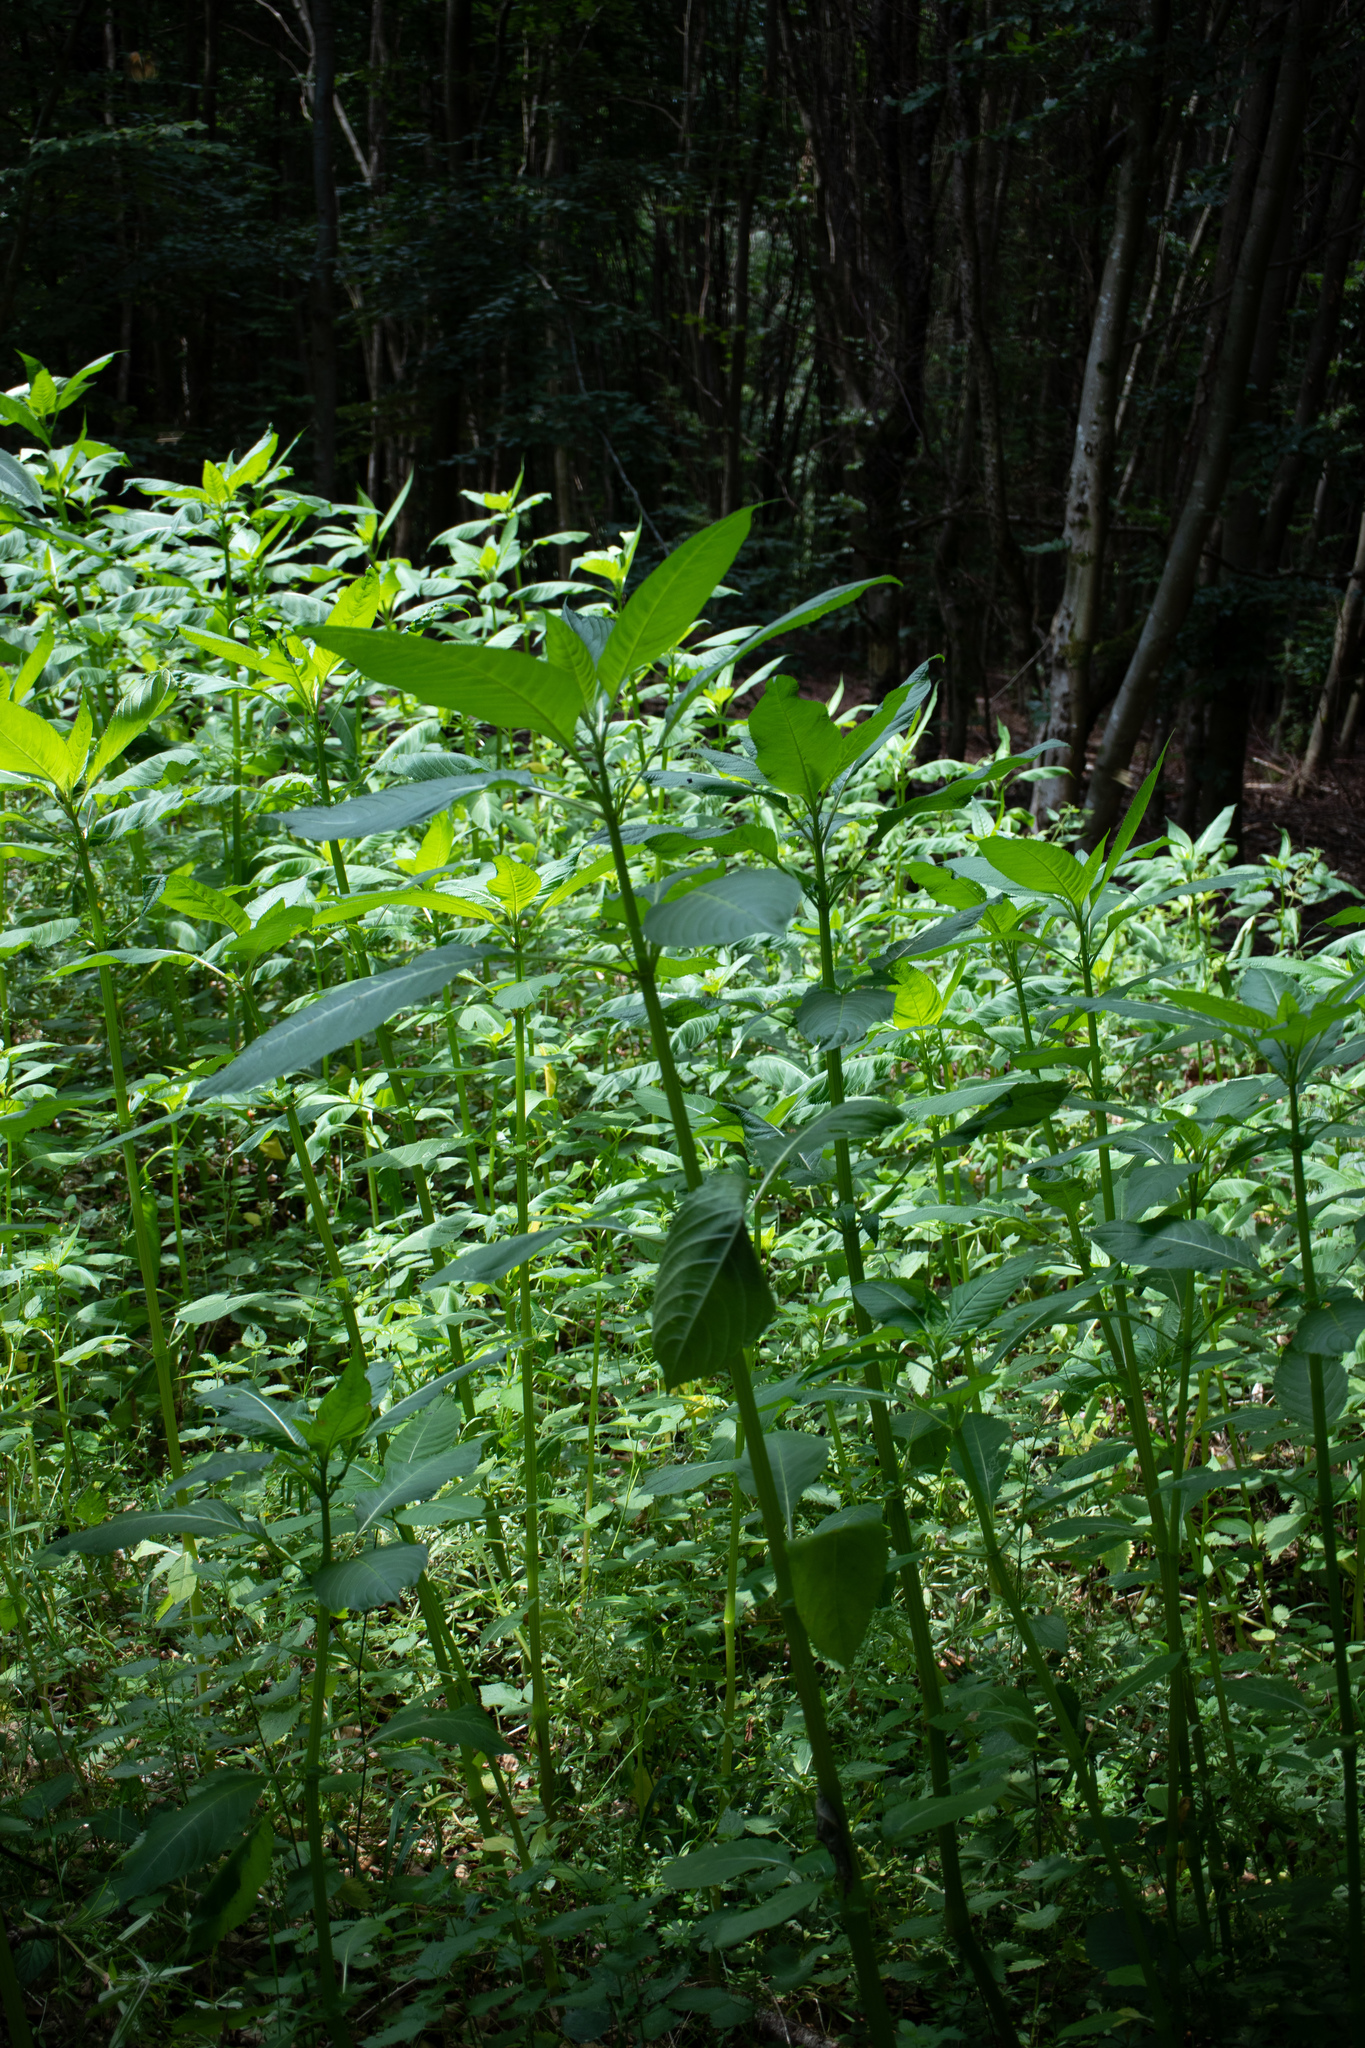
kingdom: Plantae
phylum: Tracheophyta
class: Magnoliopsida
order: Ericales
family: Balsaminaceae
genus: Impatiens
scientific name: Impatiens glandulifera
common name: Himalayan balsam
